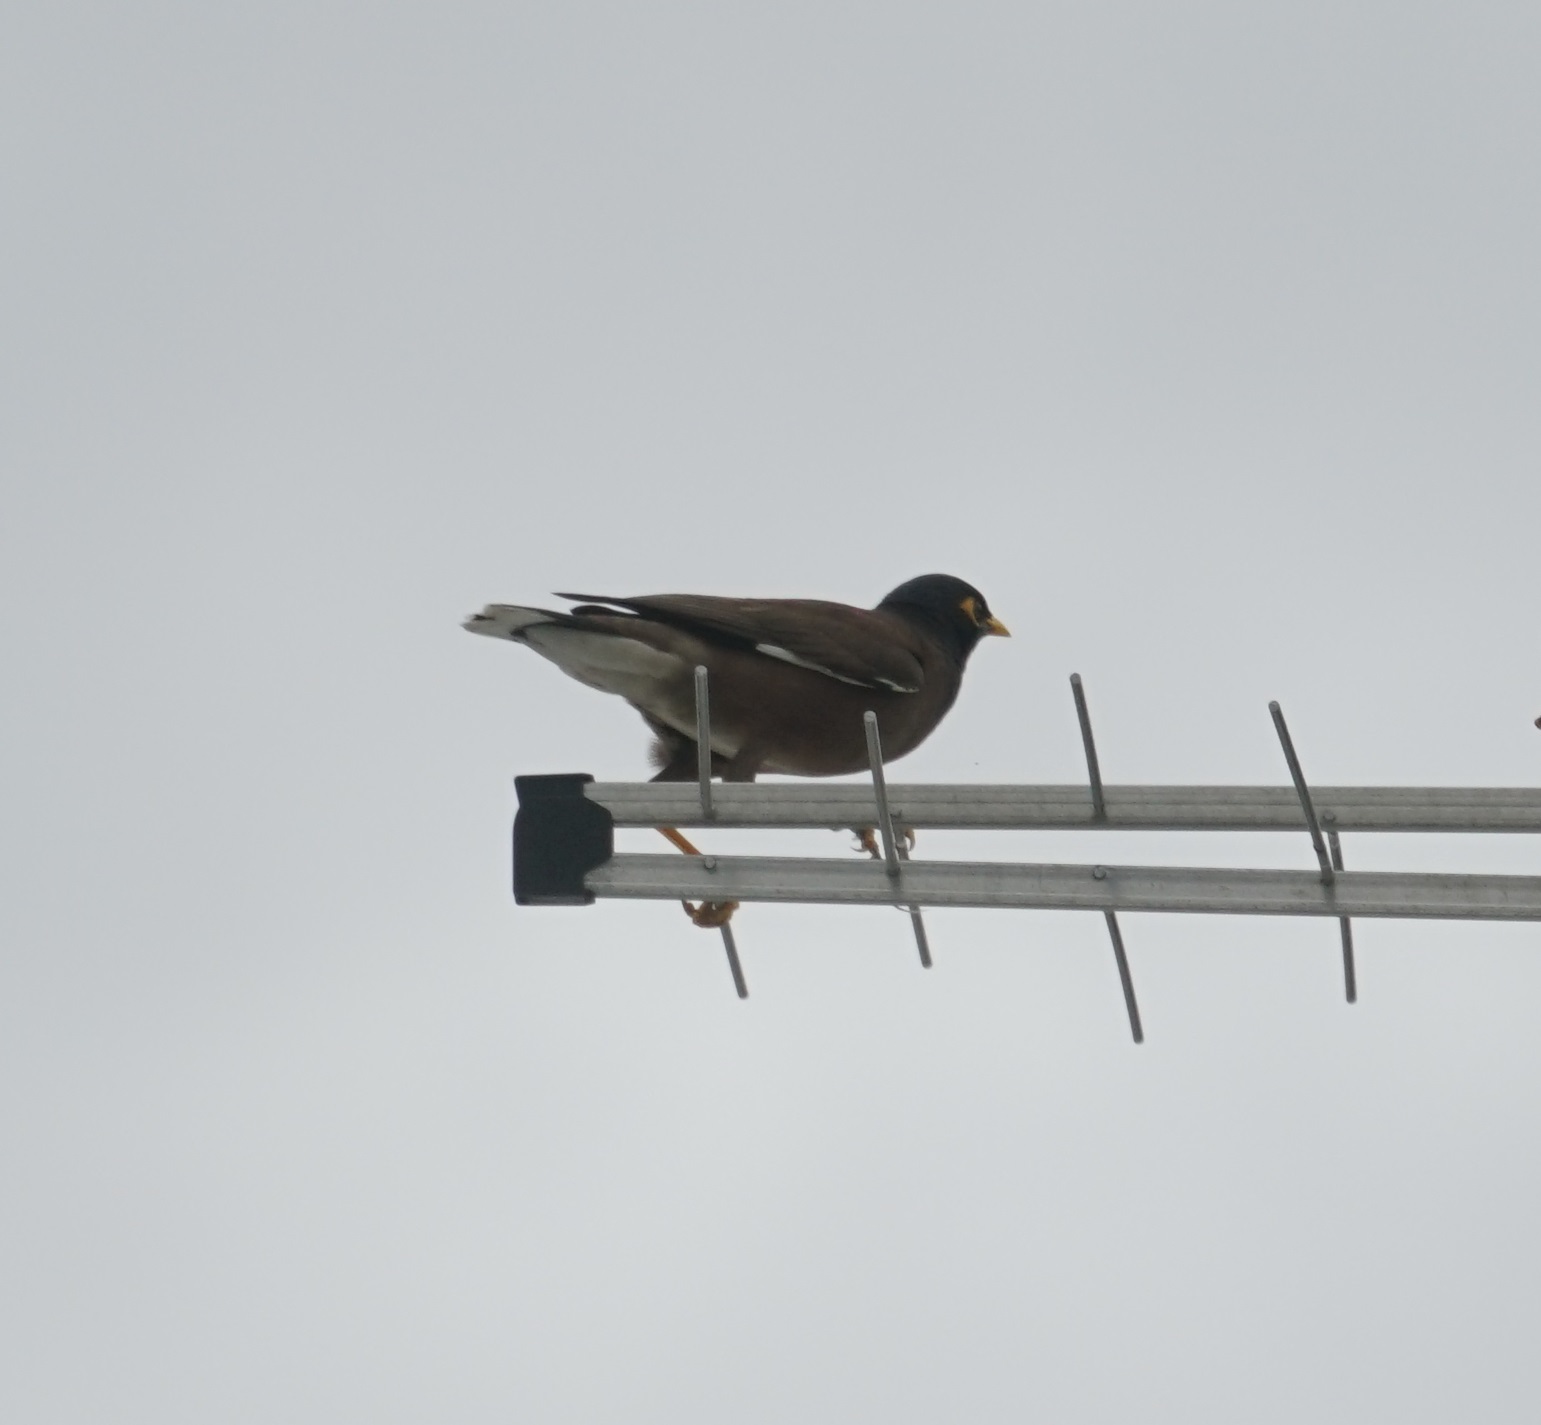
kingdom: Animalia
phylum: Chordata
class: Aves
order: Passeriformes
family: Sturnidae
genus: Acridotheres
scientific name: Acridotheres tristis
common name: Common myna
